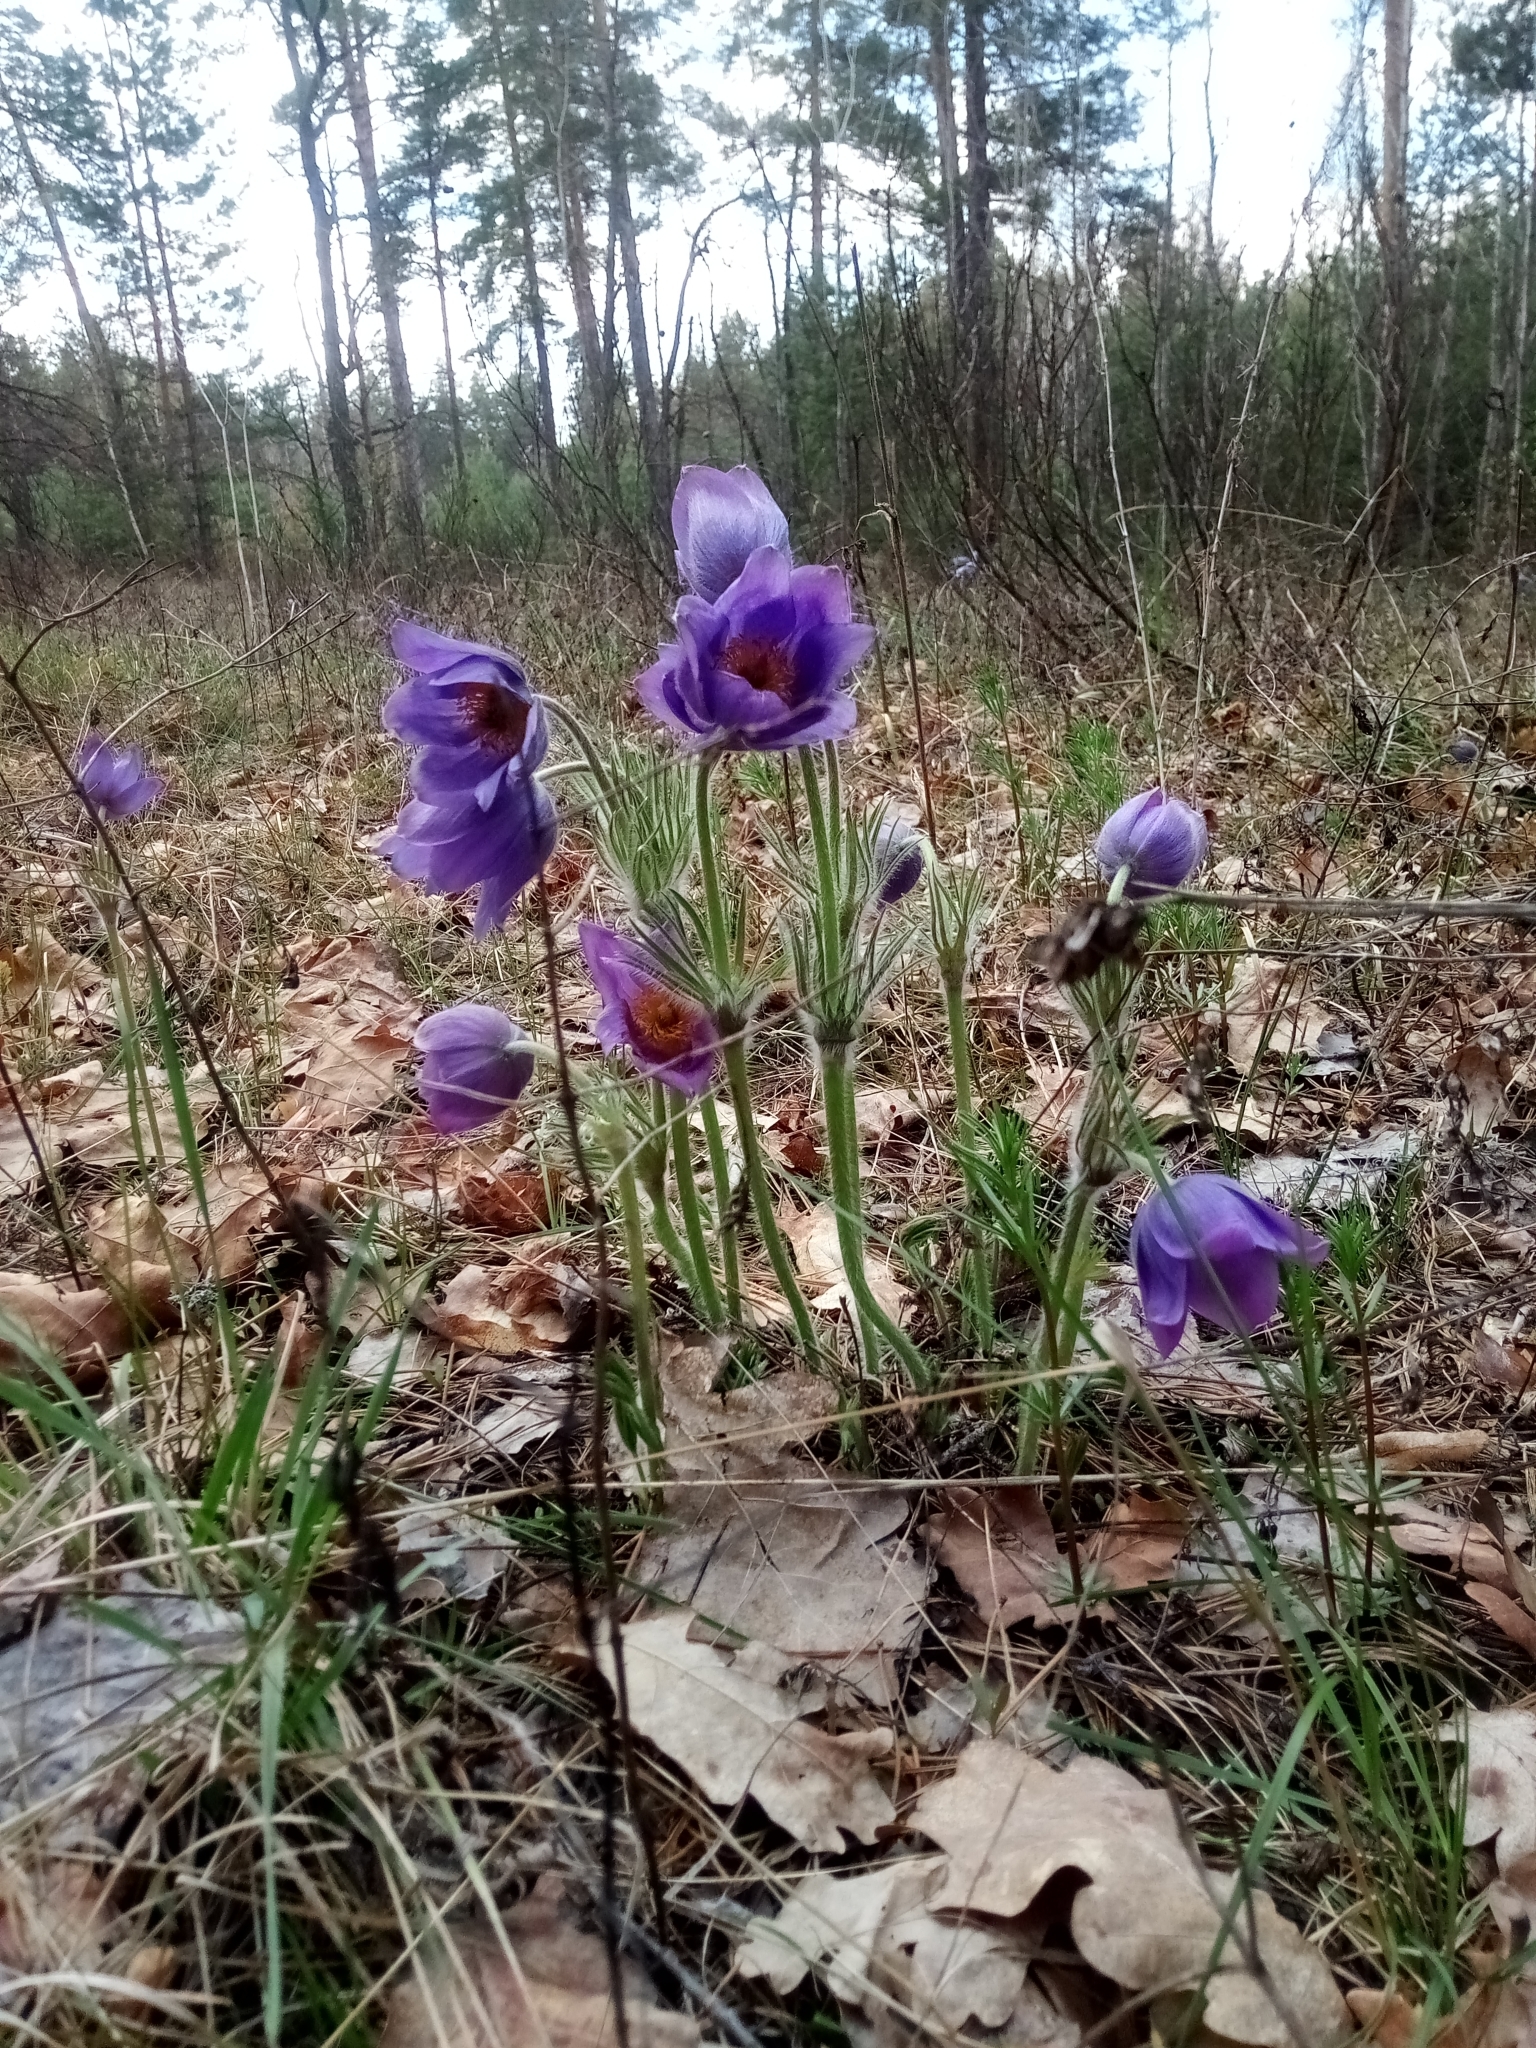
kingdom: Plantae
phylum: Tracheophyta
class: Magnoliopsida
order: Ranunculales
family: Ranunculaceae
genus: Pulsatilla
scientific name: Pulsatilla patens
